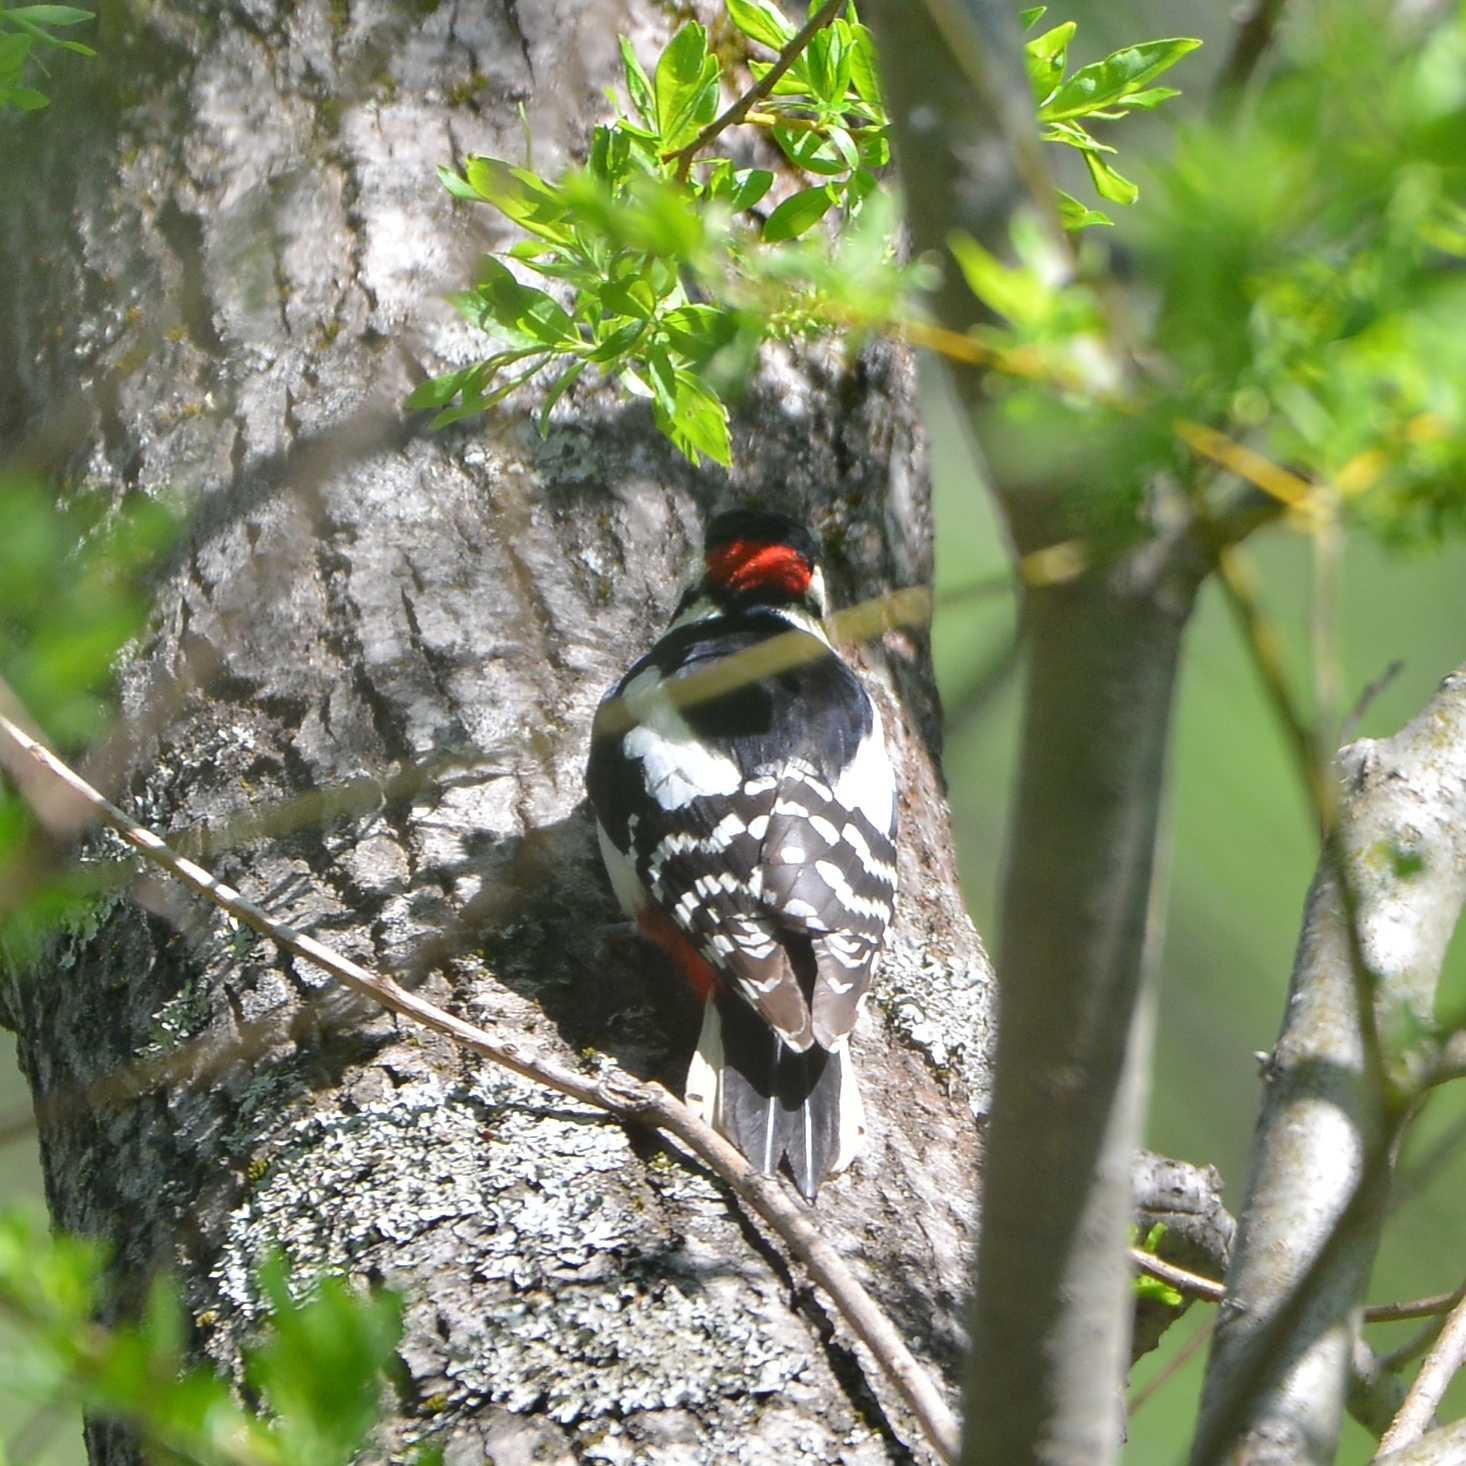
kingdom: Animalia
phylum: Chordata
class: Aves
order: Piciformes
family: Picidae
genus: Dendrocopos
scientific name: Dendrocopos major
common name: Great spotted woodpecker
